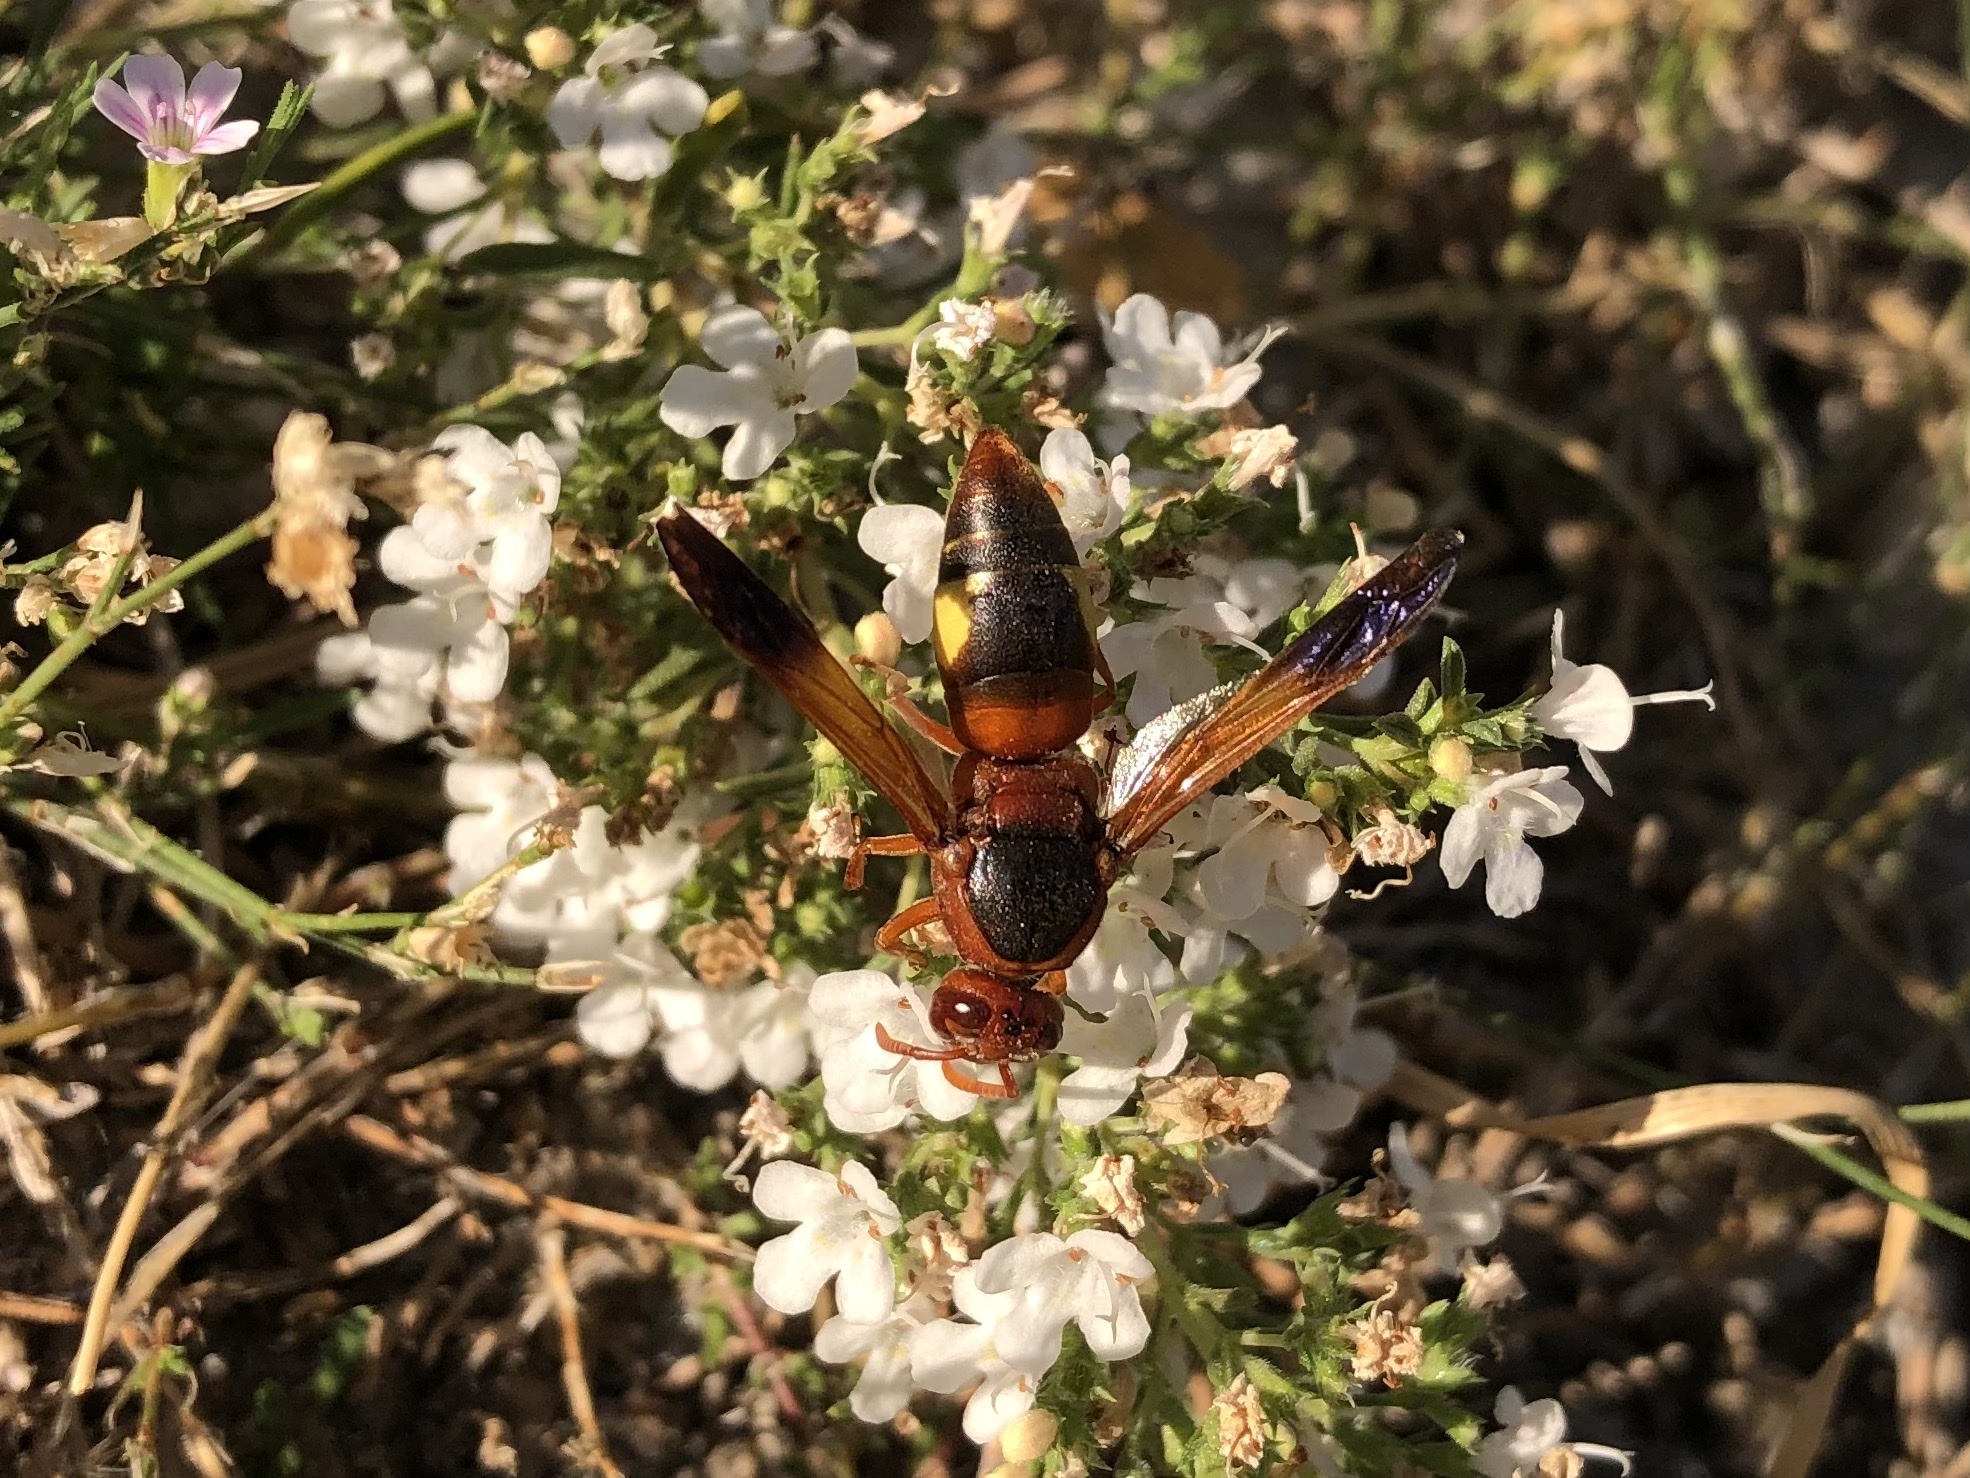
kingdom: Animalia
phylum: Arthropoda
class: Insecta
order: Hymenoptera
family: Eumenidae
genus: Rhynchium
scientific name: Rhynchium oculatum
